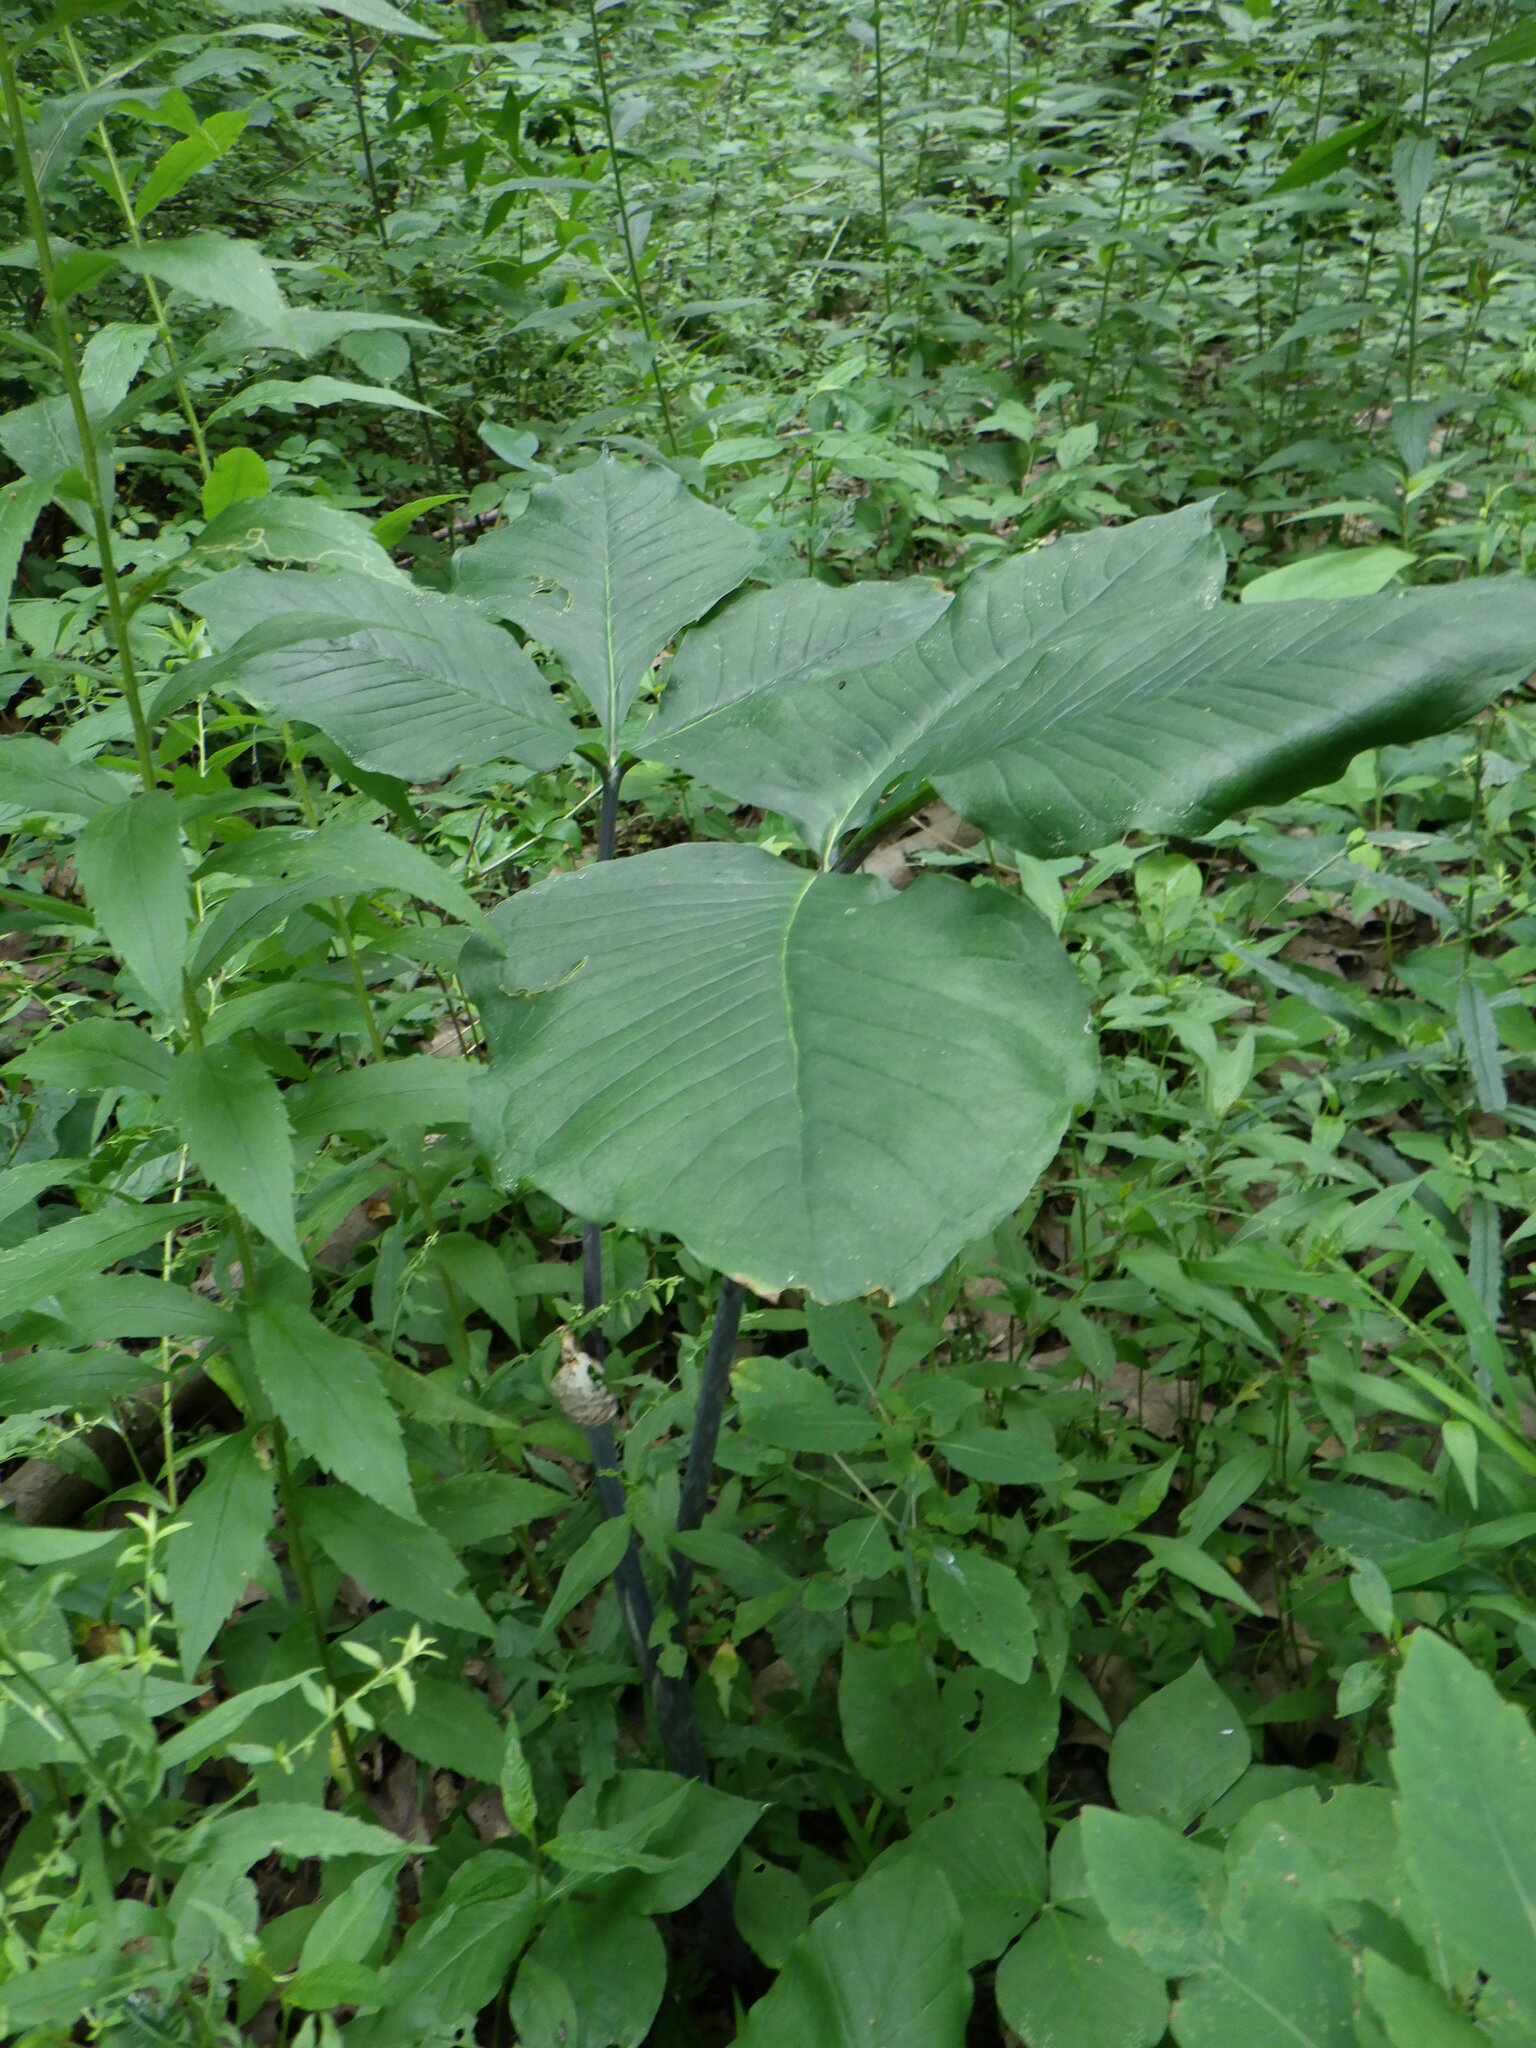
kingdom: Plantae
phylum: Tracheophyta
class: Liliopsida
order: Alismatales
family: Araceae
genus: Arisaema
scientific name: Arisaema triphyllum
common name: Jack-in-the-pulpit
